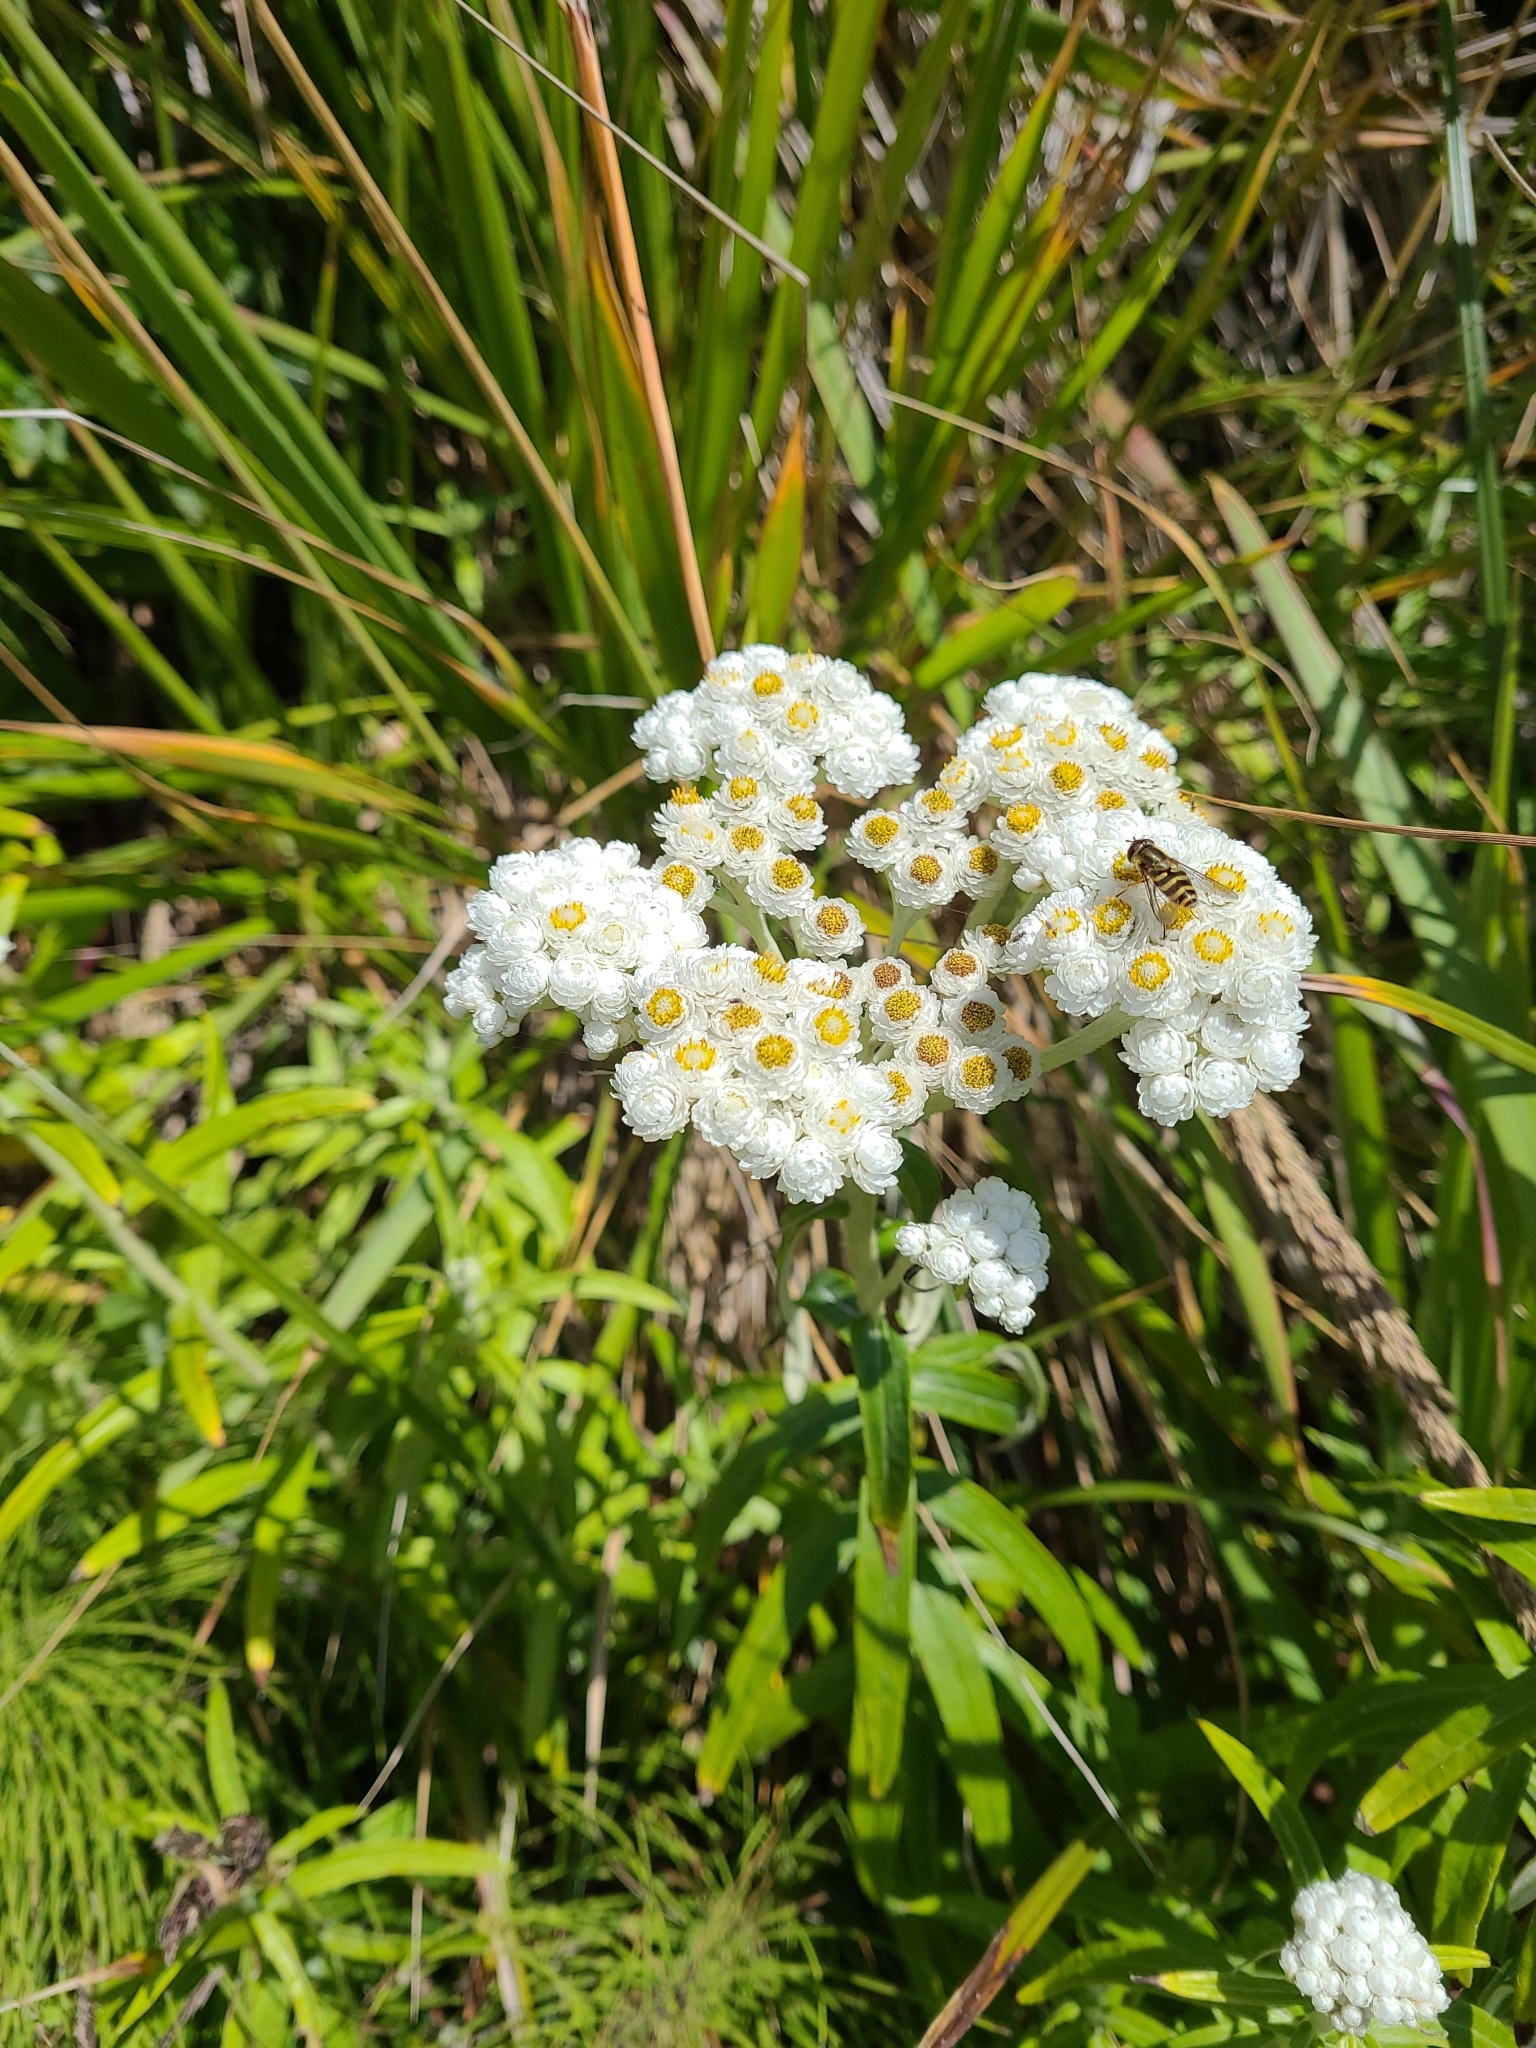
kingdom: Plantae
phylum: Tracheophyta
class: Magnoliopsida
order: Asterales
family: Asteraceae
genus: Anaphalis
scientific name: Anaphalis margaritacea
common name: Pearly everlasting
